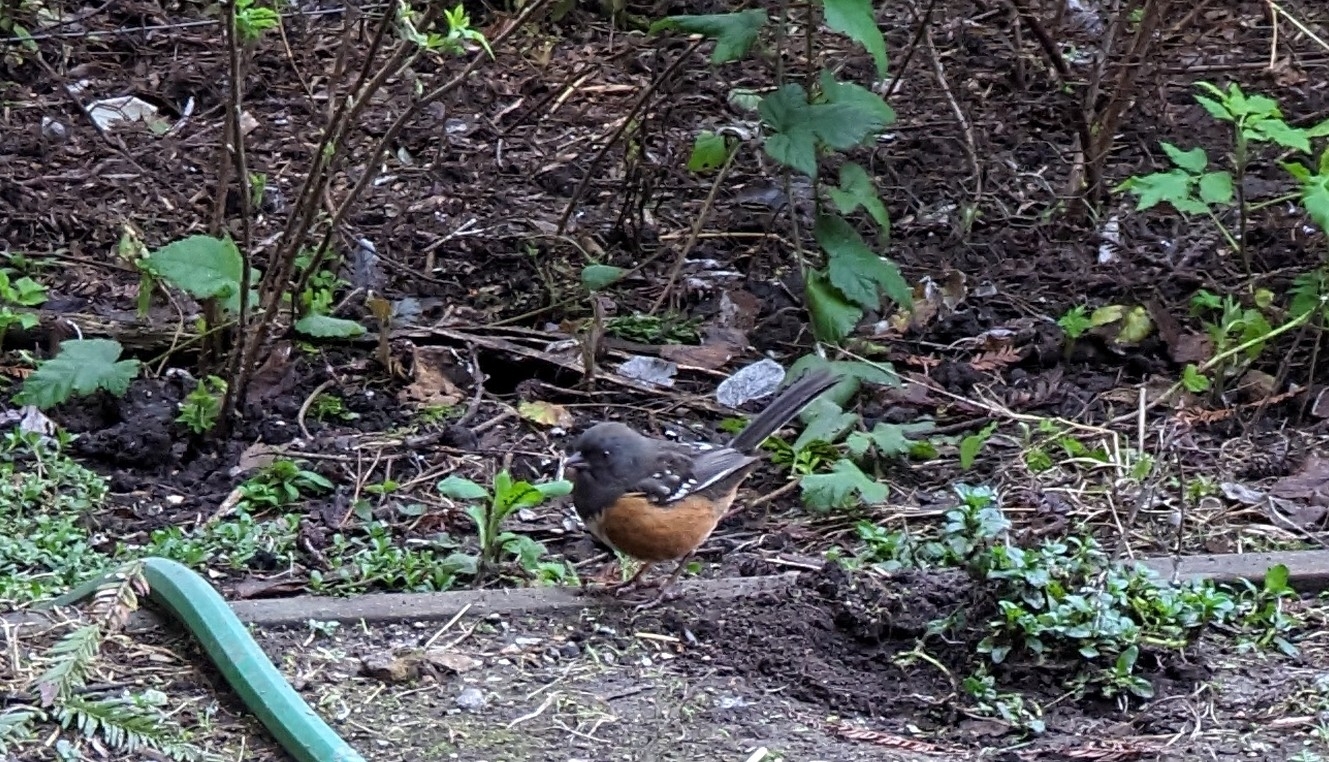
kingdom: Animalia
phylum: Chordata
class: Aves
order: Passeriformes
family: Passerellidae
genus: Pipilo
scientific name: Pipilo maculatus
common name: Spotted towhee
